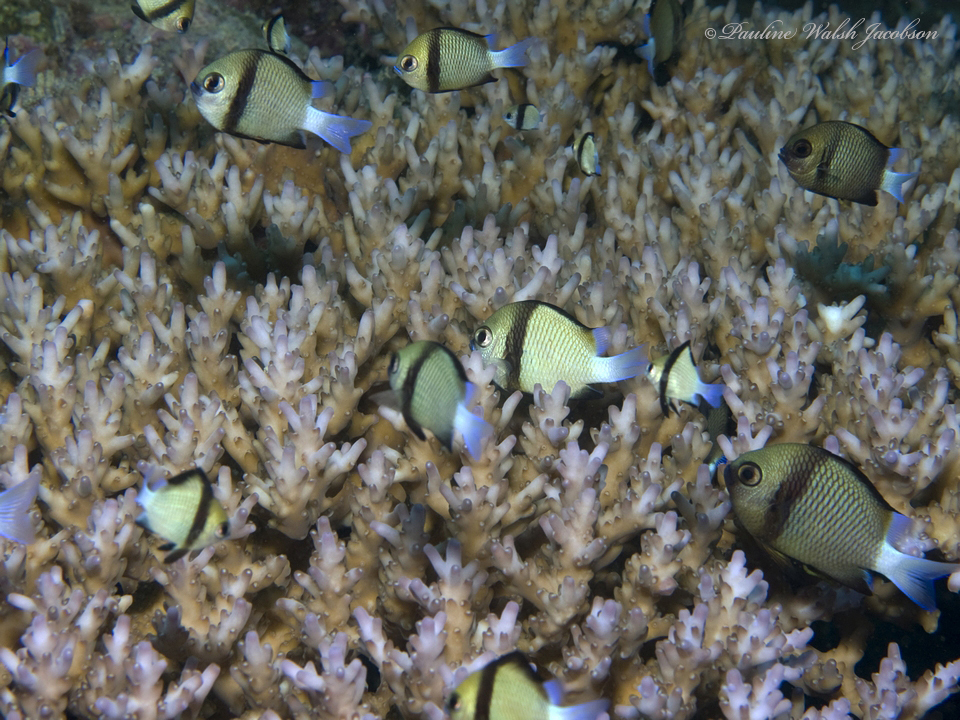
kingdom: Animalia
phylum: Chordata
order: Perciformes
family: Pomacentridae
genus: Dascyllus
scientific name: Dascyllus reticulatus
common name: Reticulated dascyllus
